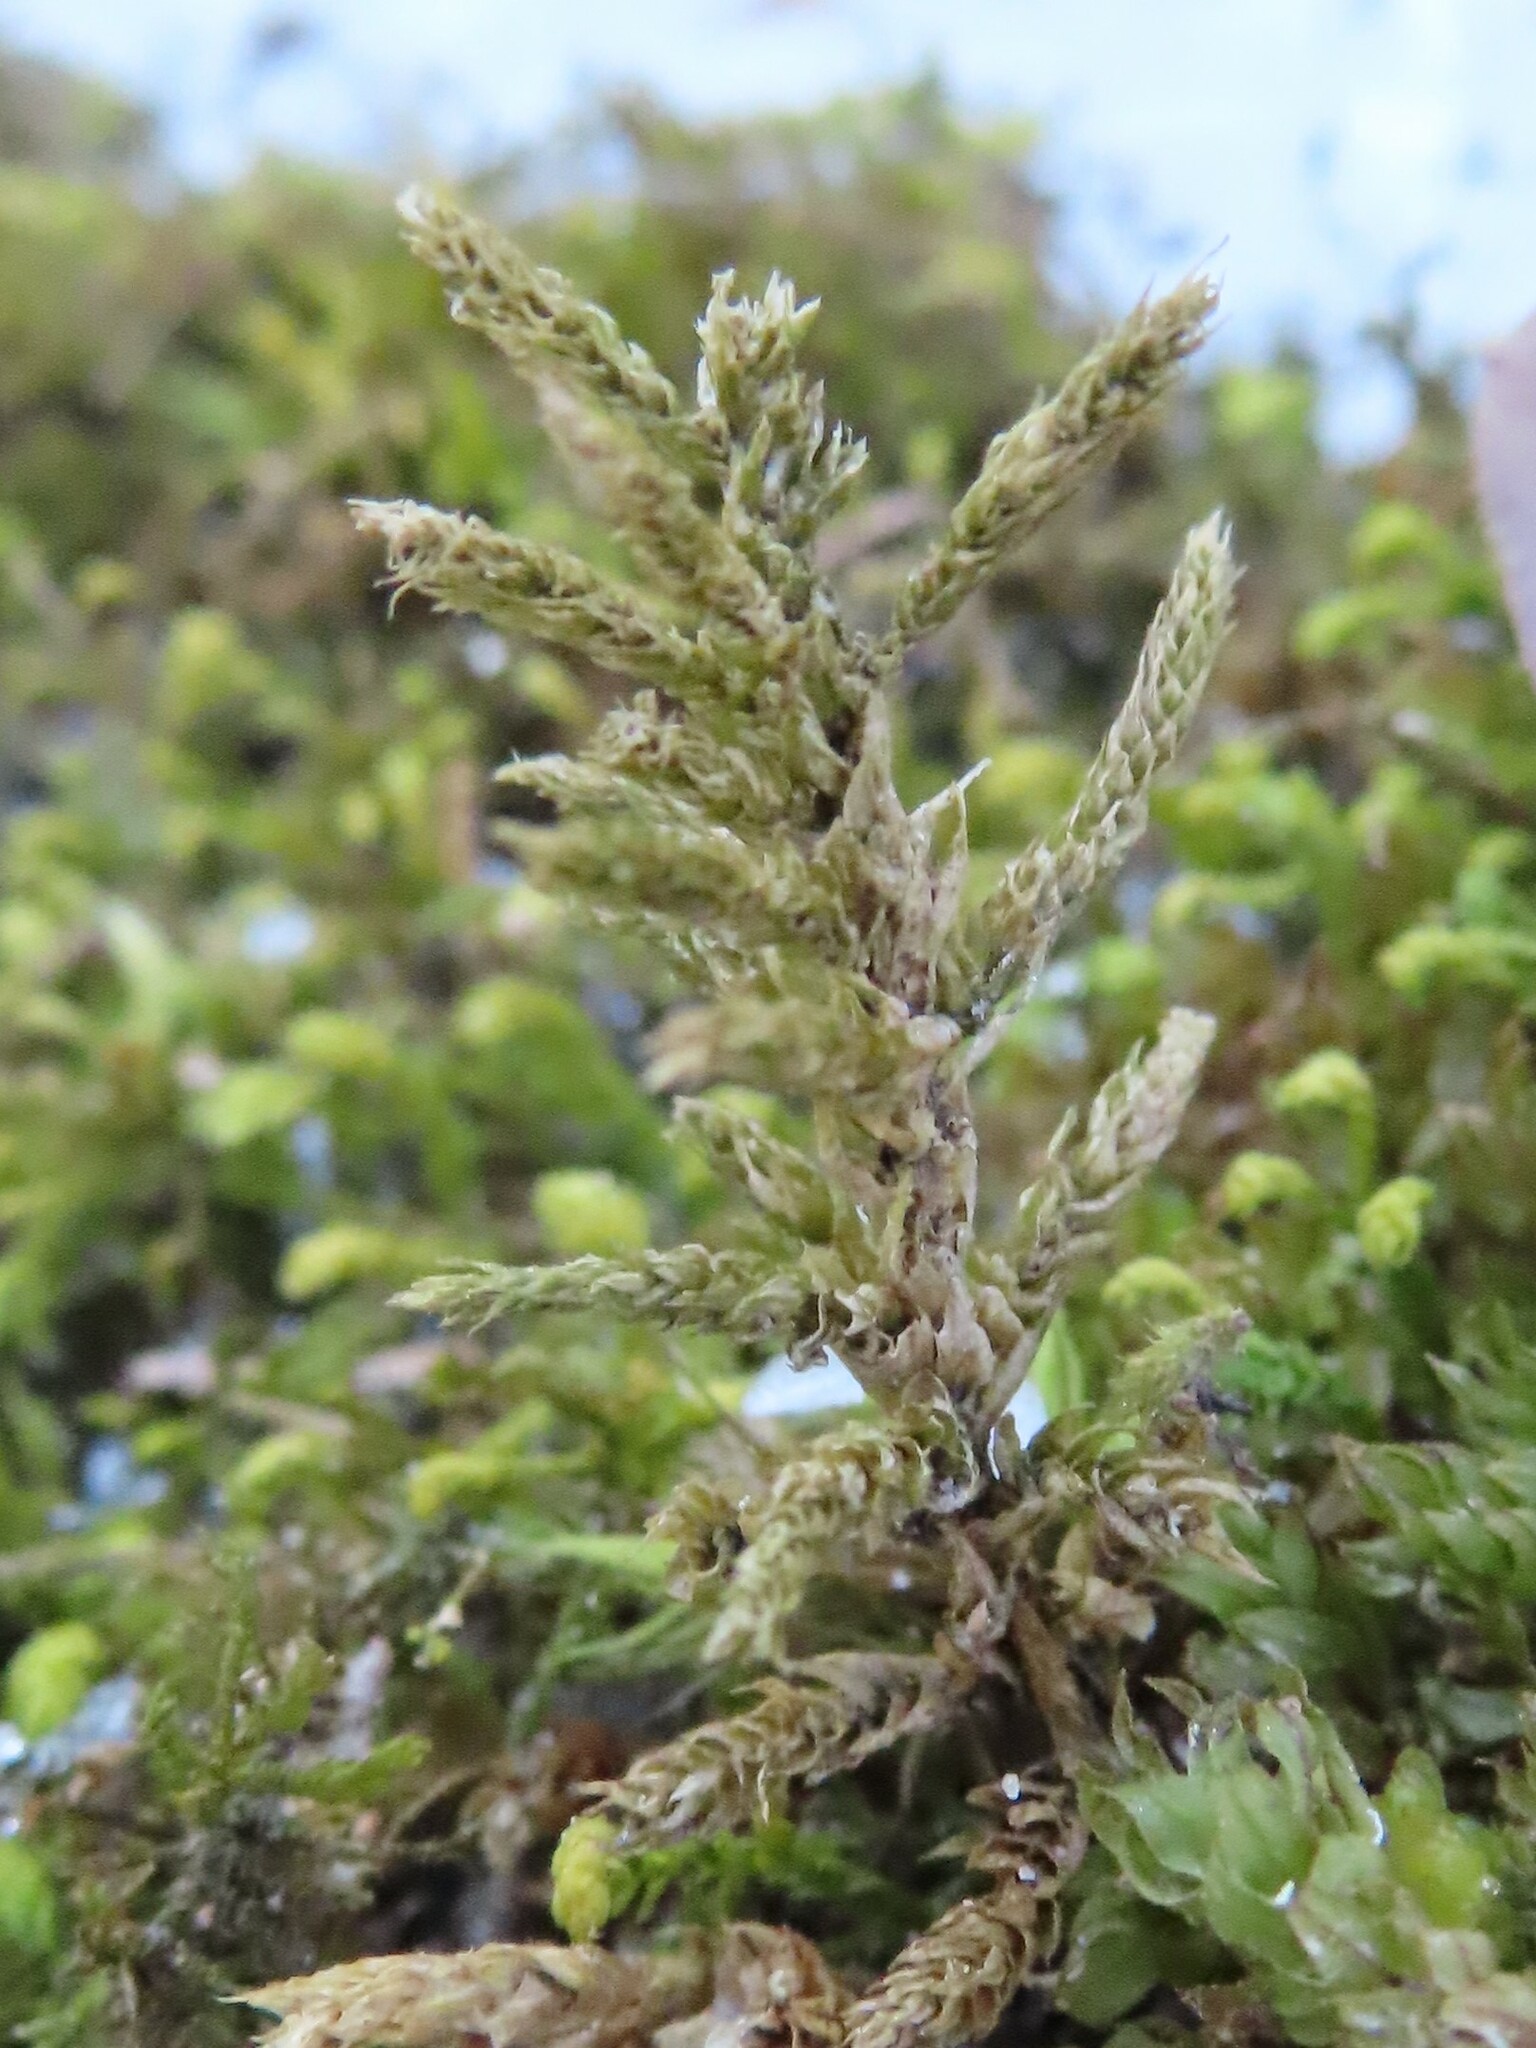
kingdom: Plantae
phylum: Bryophyta
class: Bryopsida
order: Hypnales
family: Climaciaceae
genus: Climacium
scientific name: Climacium americanum
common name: American tree moss
